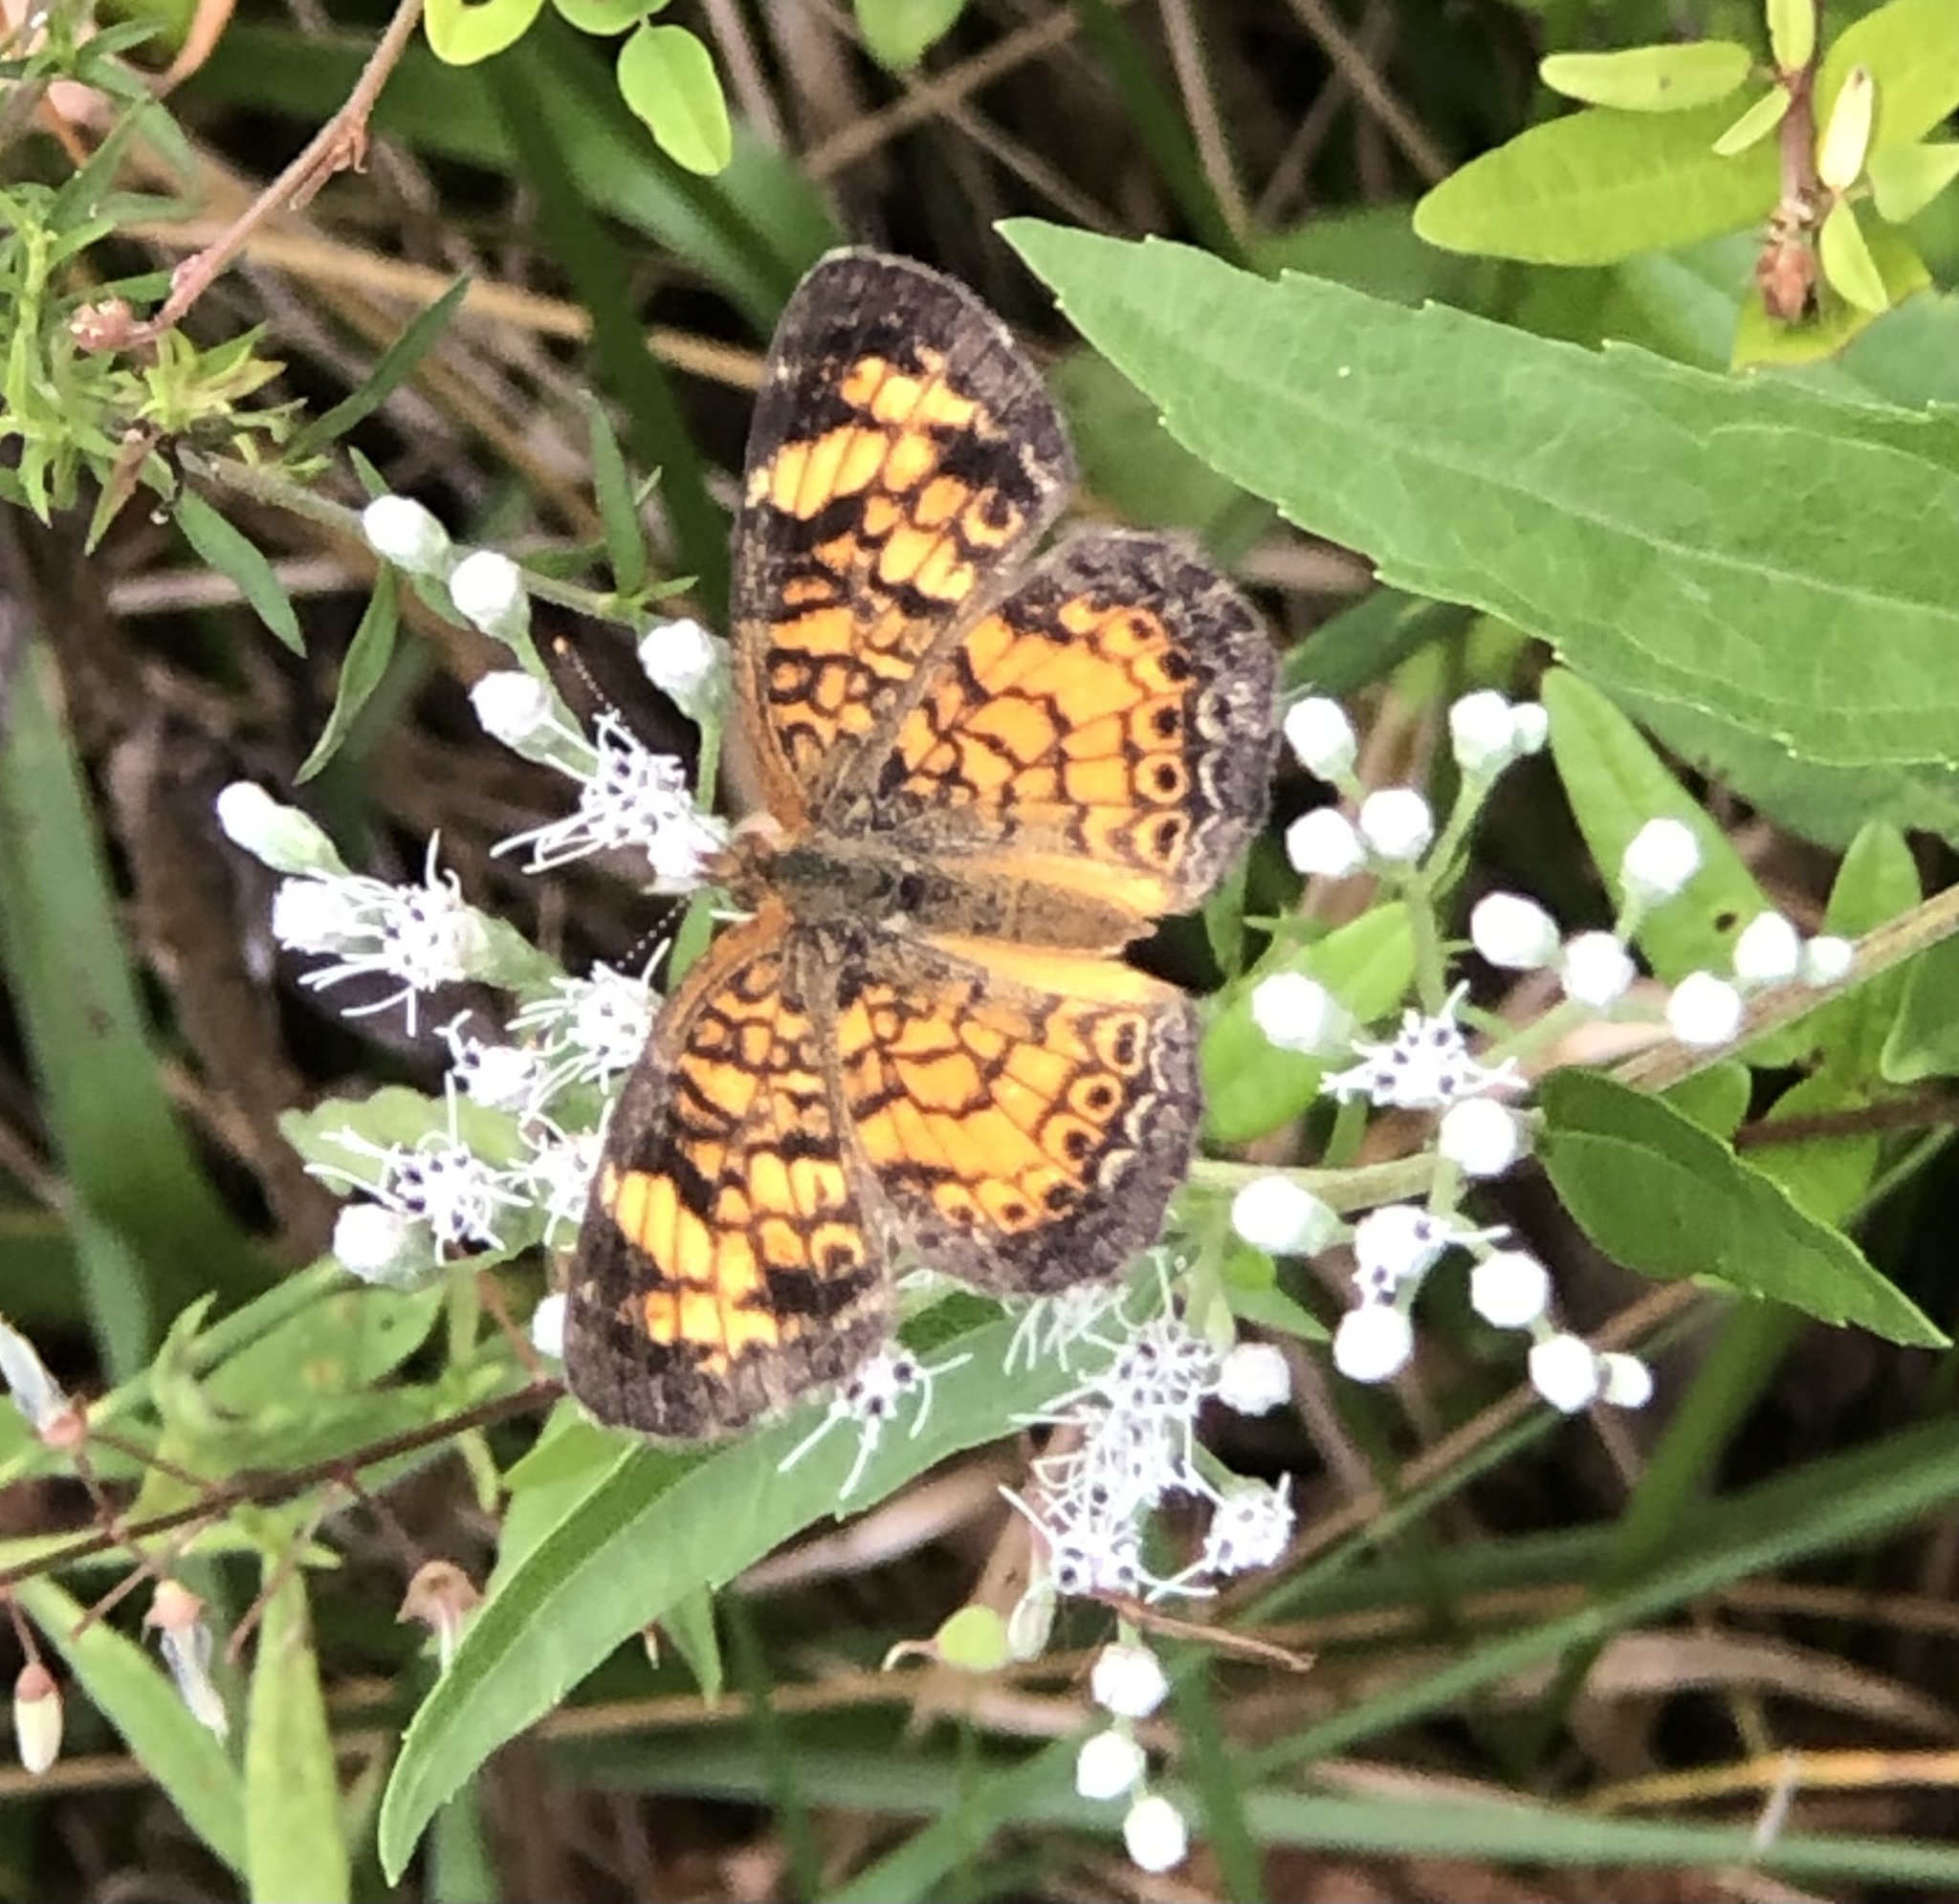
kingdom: Animalia
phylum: Arthropoda
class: Insecta
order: Lepidoptera
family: Nymphalidae
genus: Phyciodes
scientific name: Phyciodes tharos
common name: Pearl crescent
